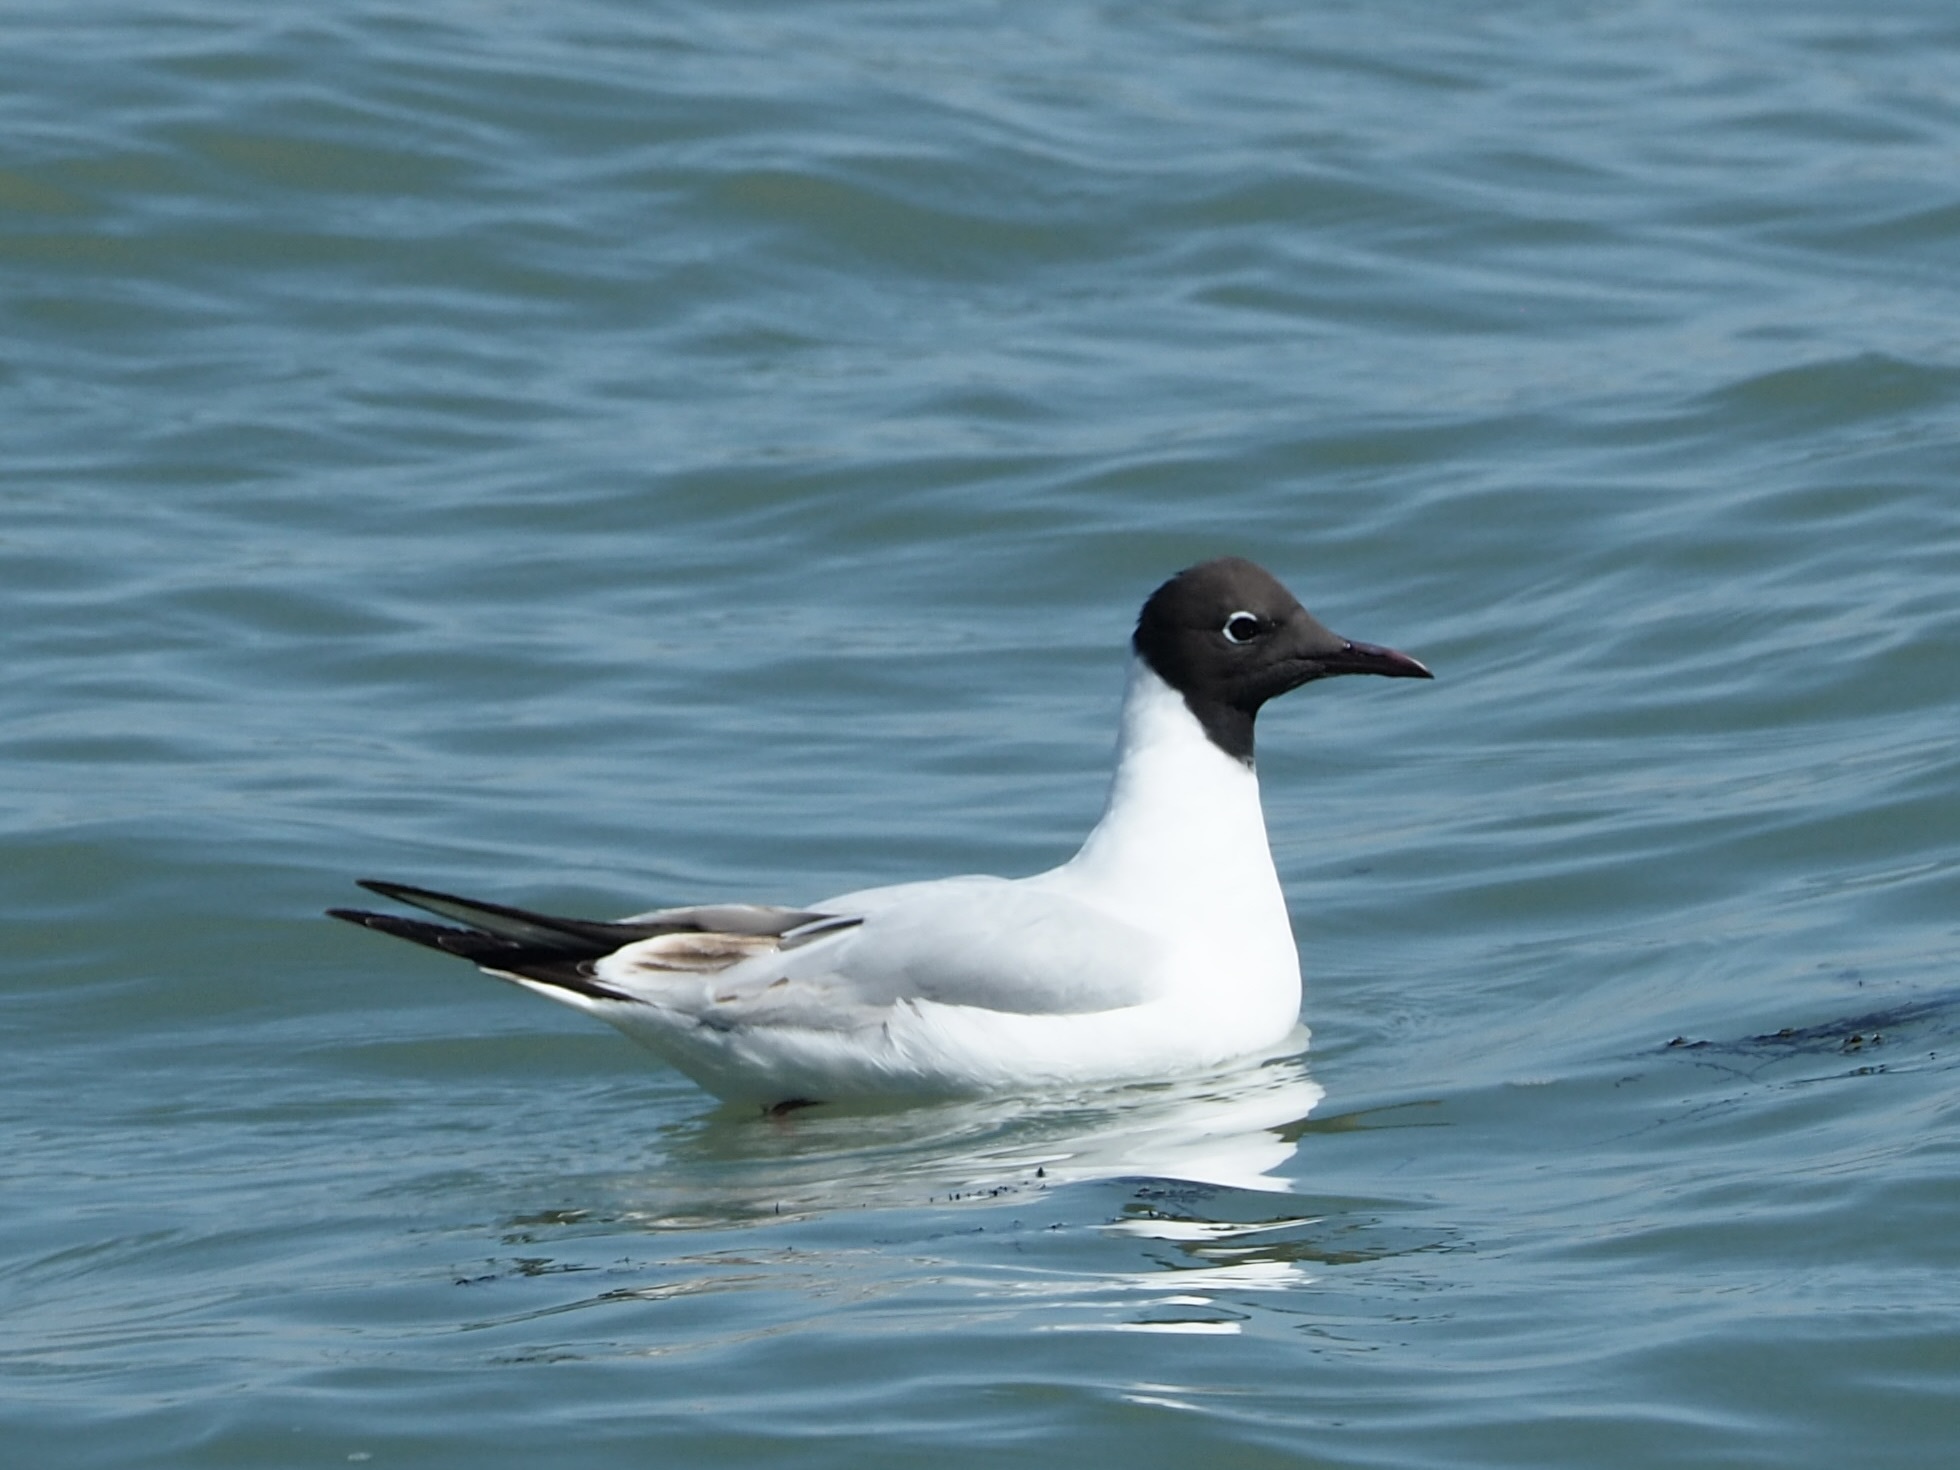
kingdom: Animalia
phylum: Chordata
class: Aves
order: Charadriiformes
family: Laridae
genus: Chroicocephalus
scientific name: Chroicocephalus ridibundus
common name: Black-headed gull
